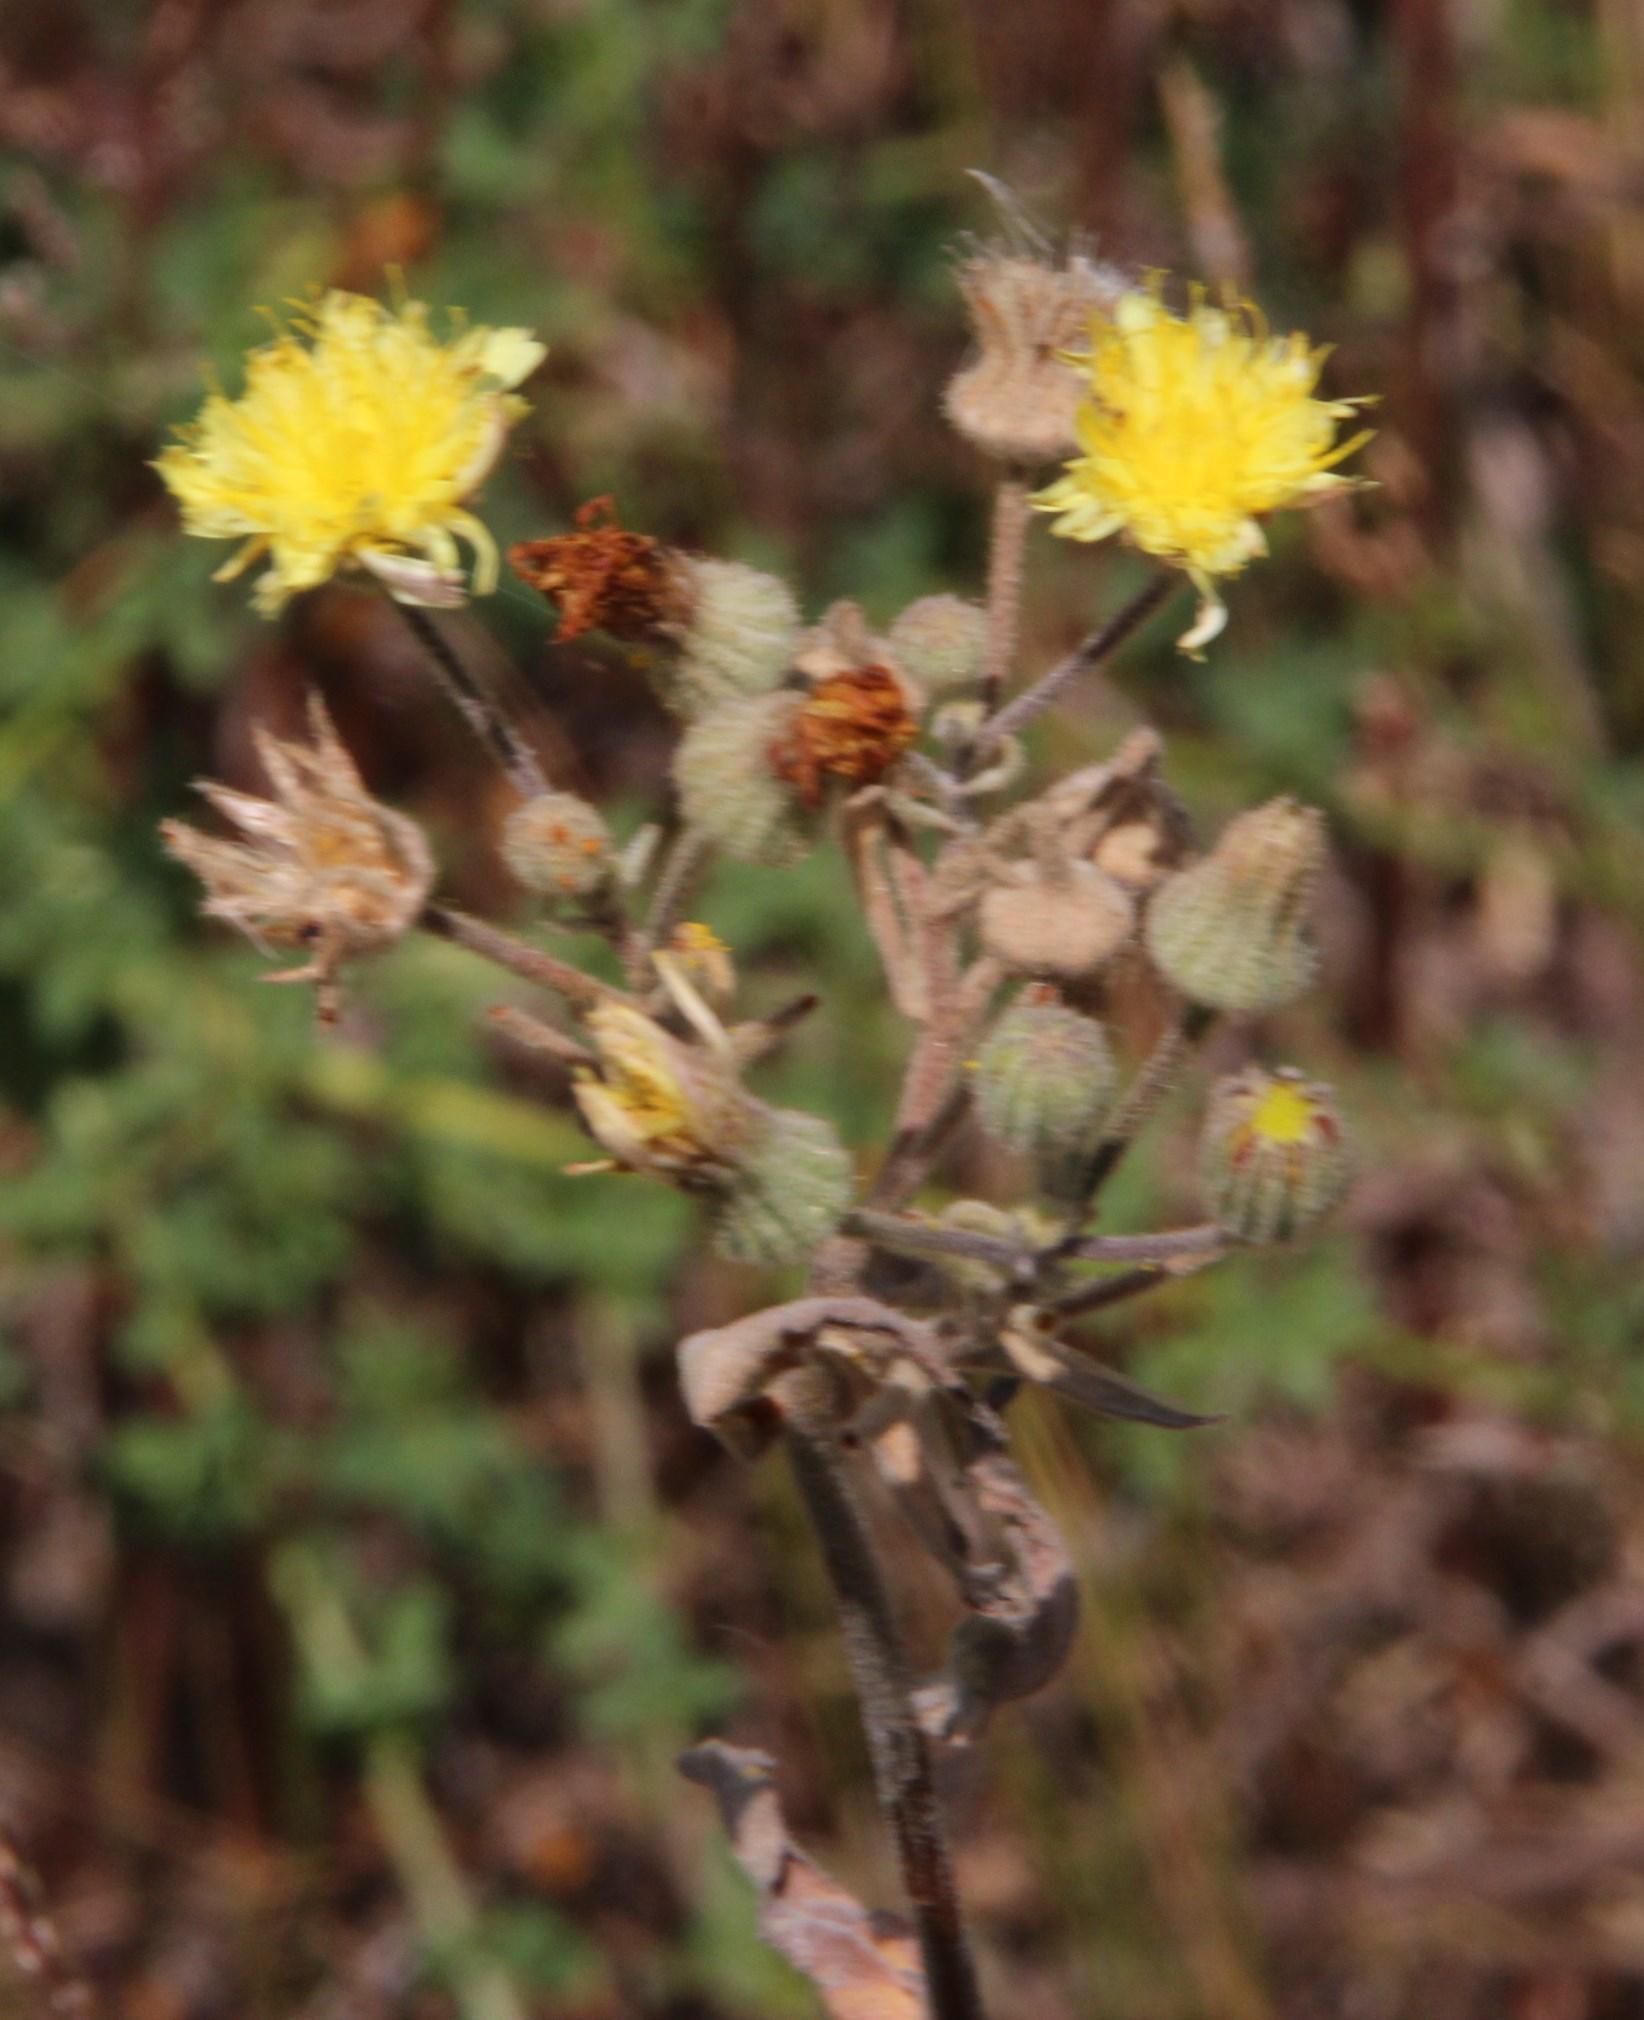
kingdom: Plantae
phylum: Tracheophyta
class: Magnoliopsida
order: Asterales
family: Asteraceae
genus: Andryala
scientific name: Andryala integrifolia
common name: Common andryala
